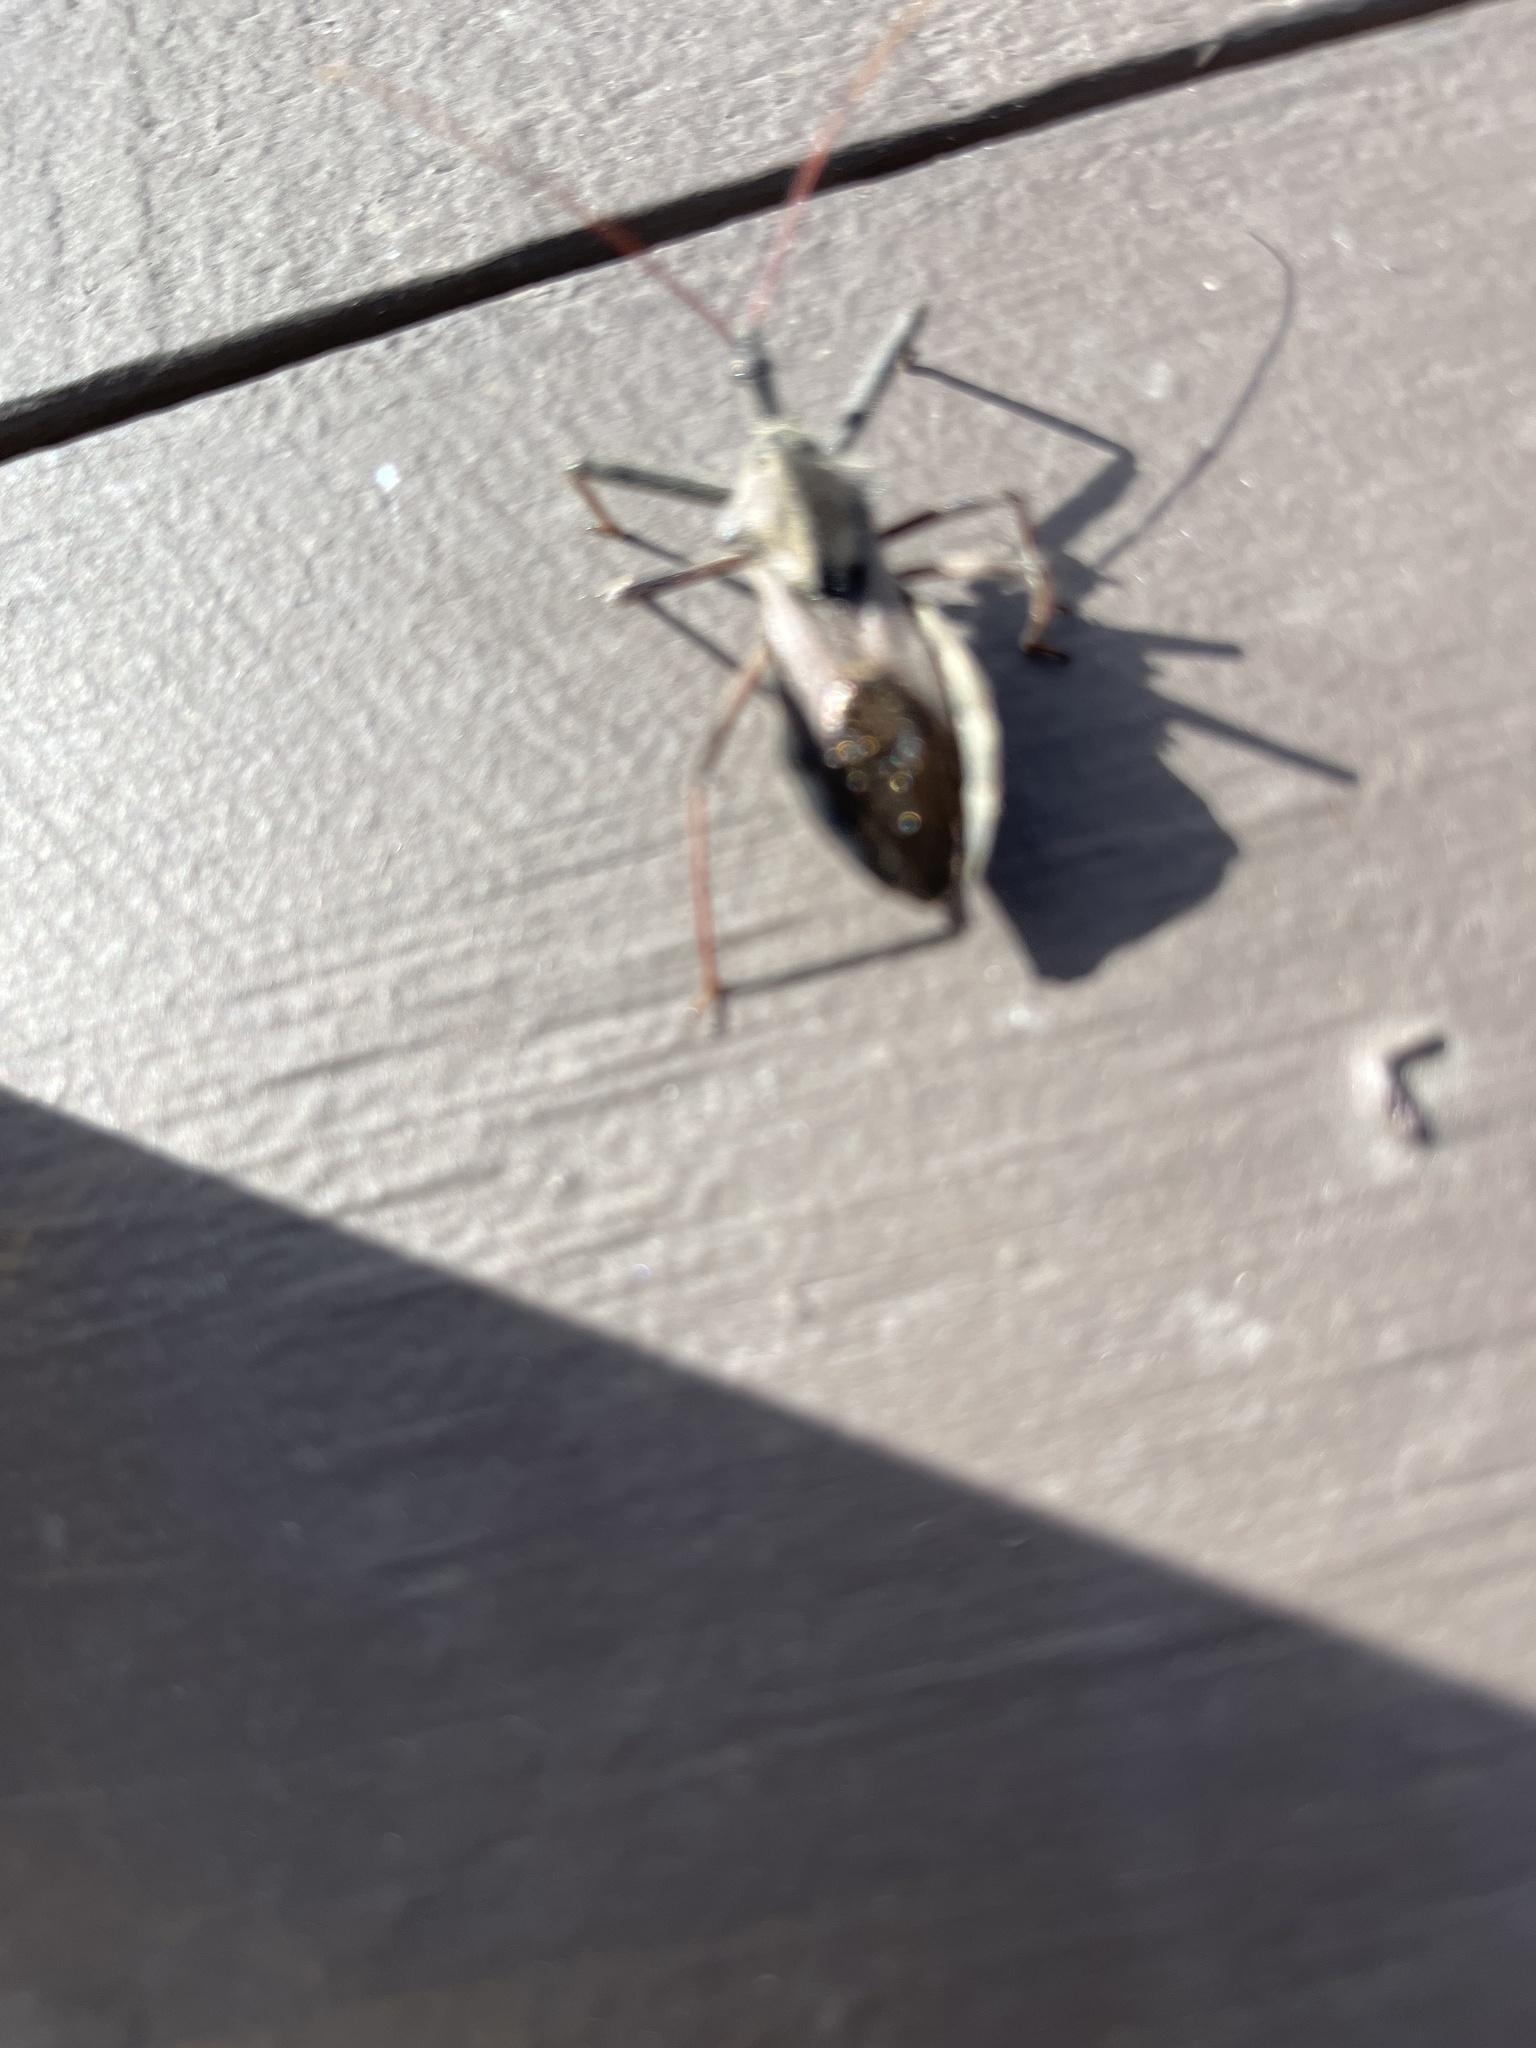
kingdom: Animalia
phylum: Arthropoda
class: Insecta
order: Hemiptera
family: Reduviidae
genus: Arilus
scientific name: Arilus cristatus
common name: North american wheel bug
